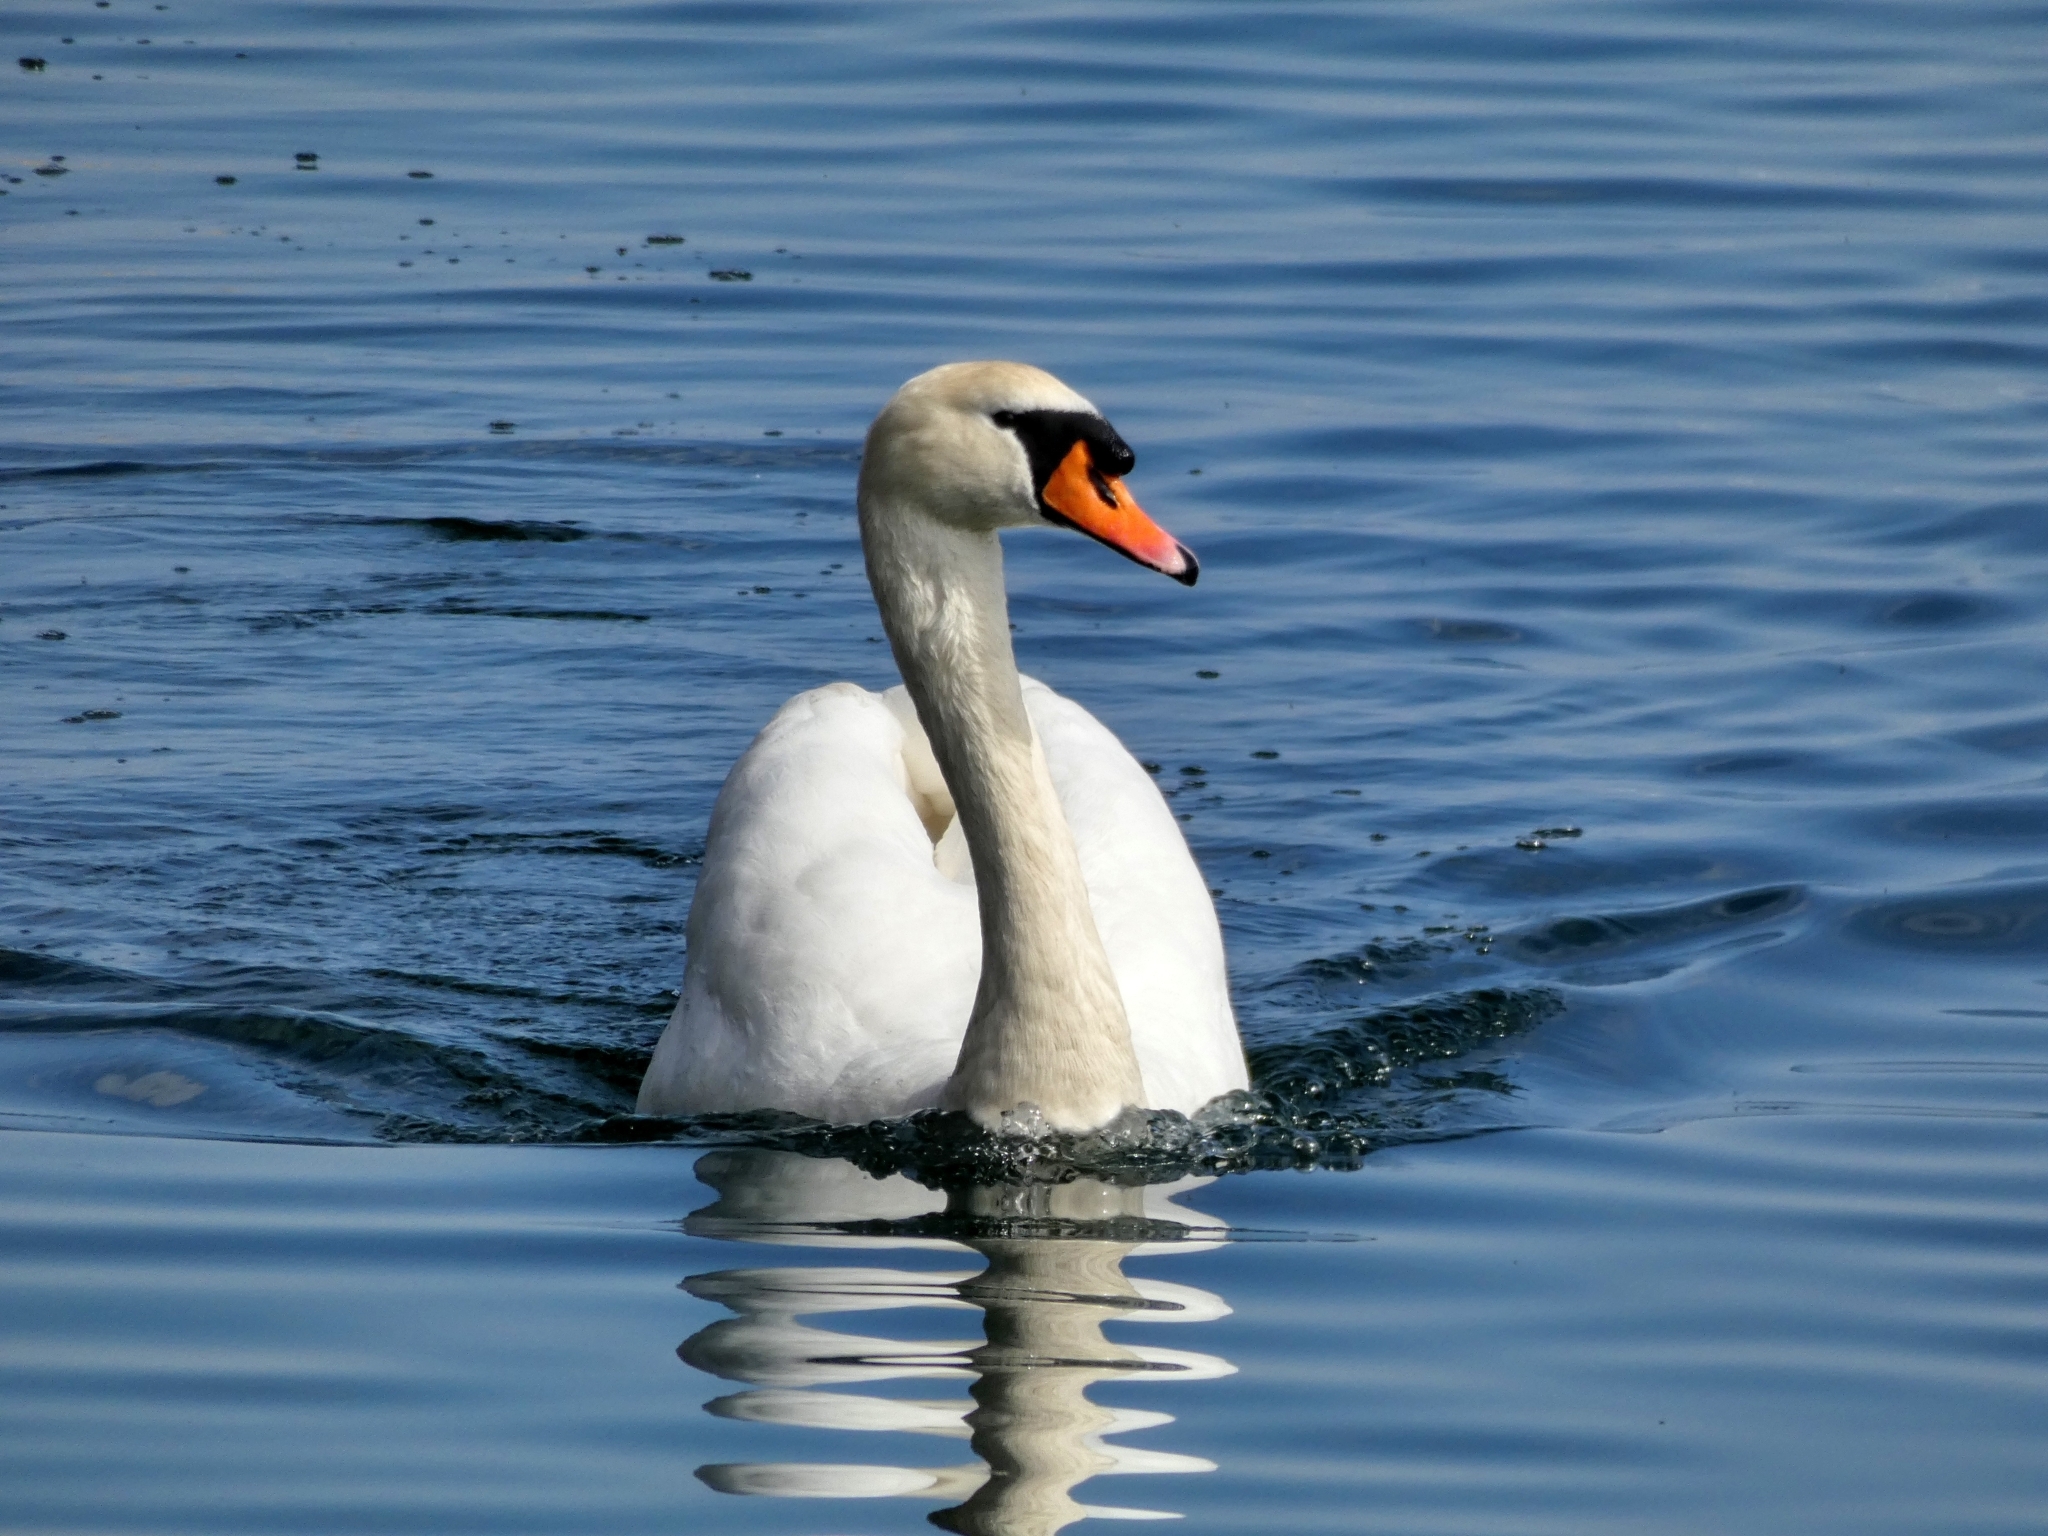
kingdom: Animalia
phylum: Chordata
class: Aves
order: Anseriformes
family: Anatidae
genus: Cygnus
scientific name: Cygnus olor
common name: Mute swan
